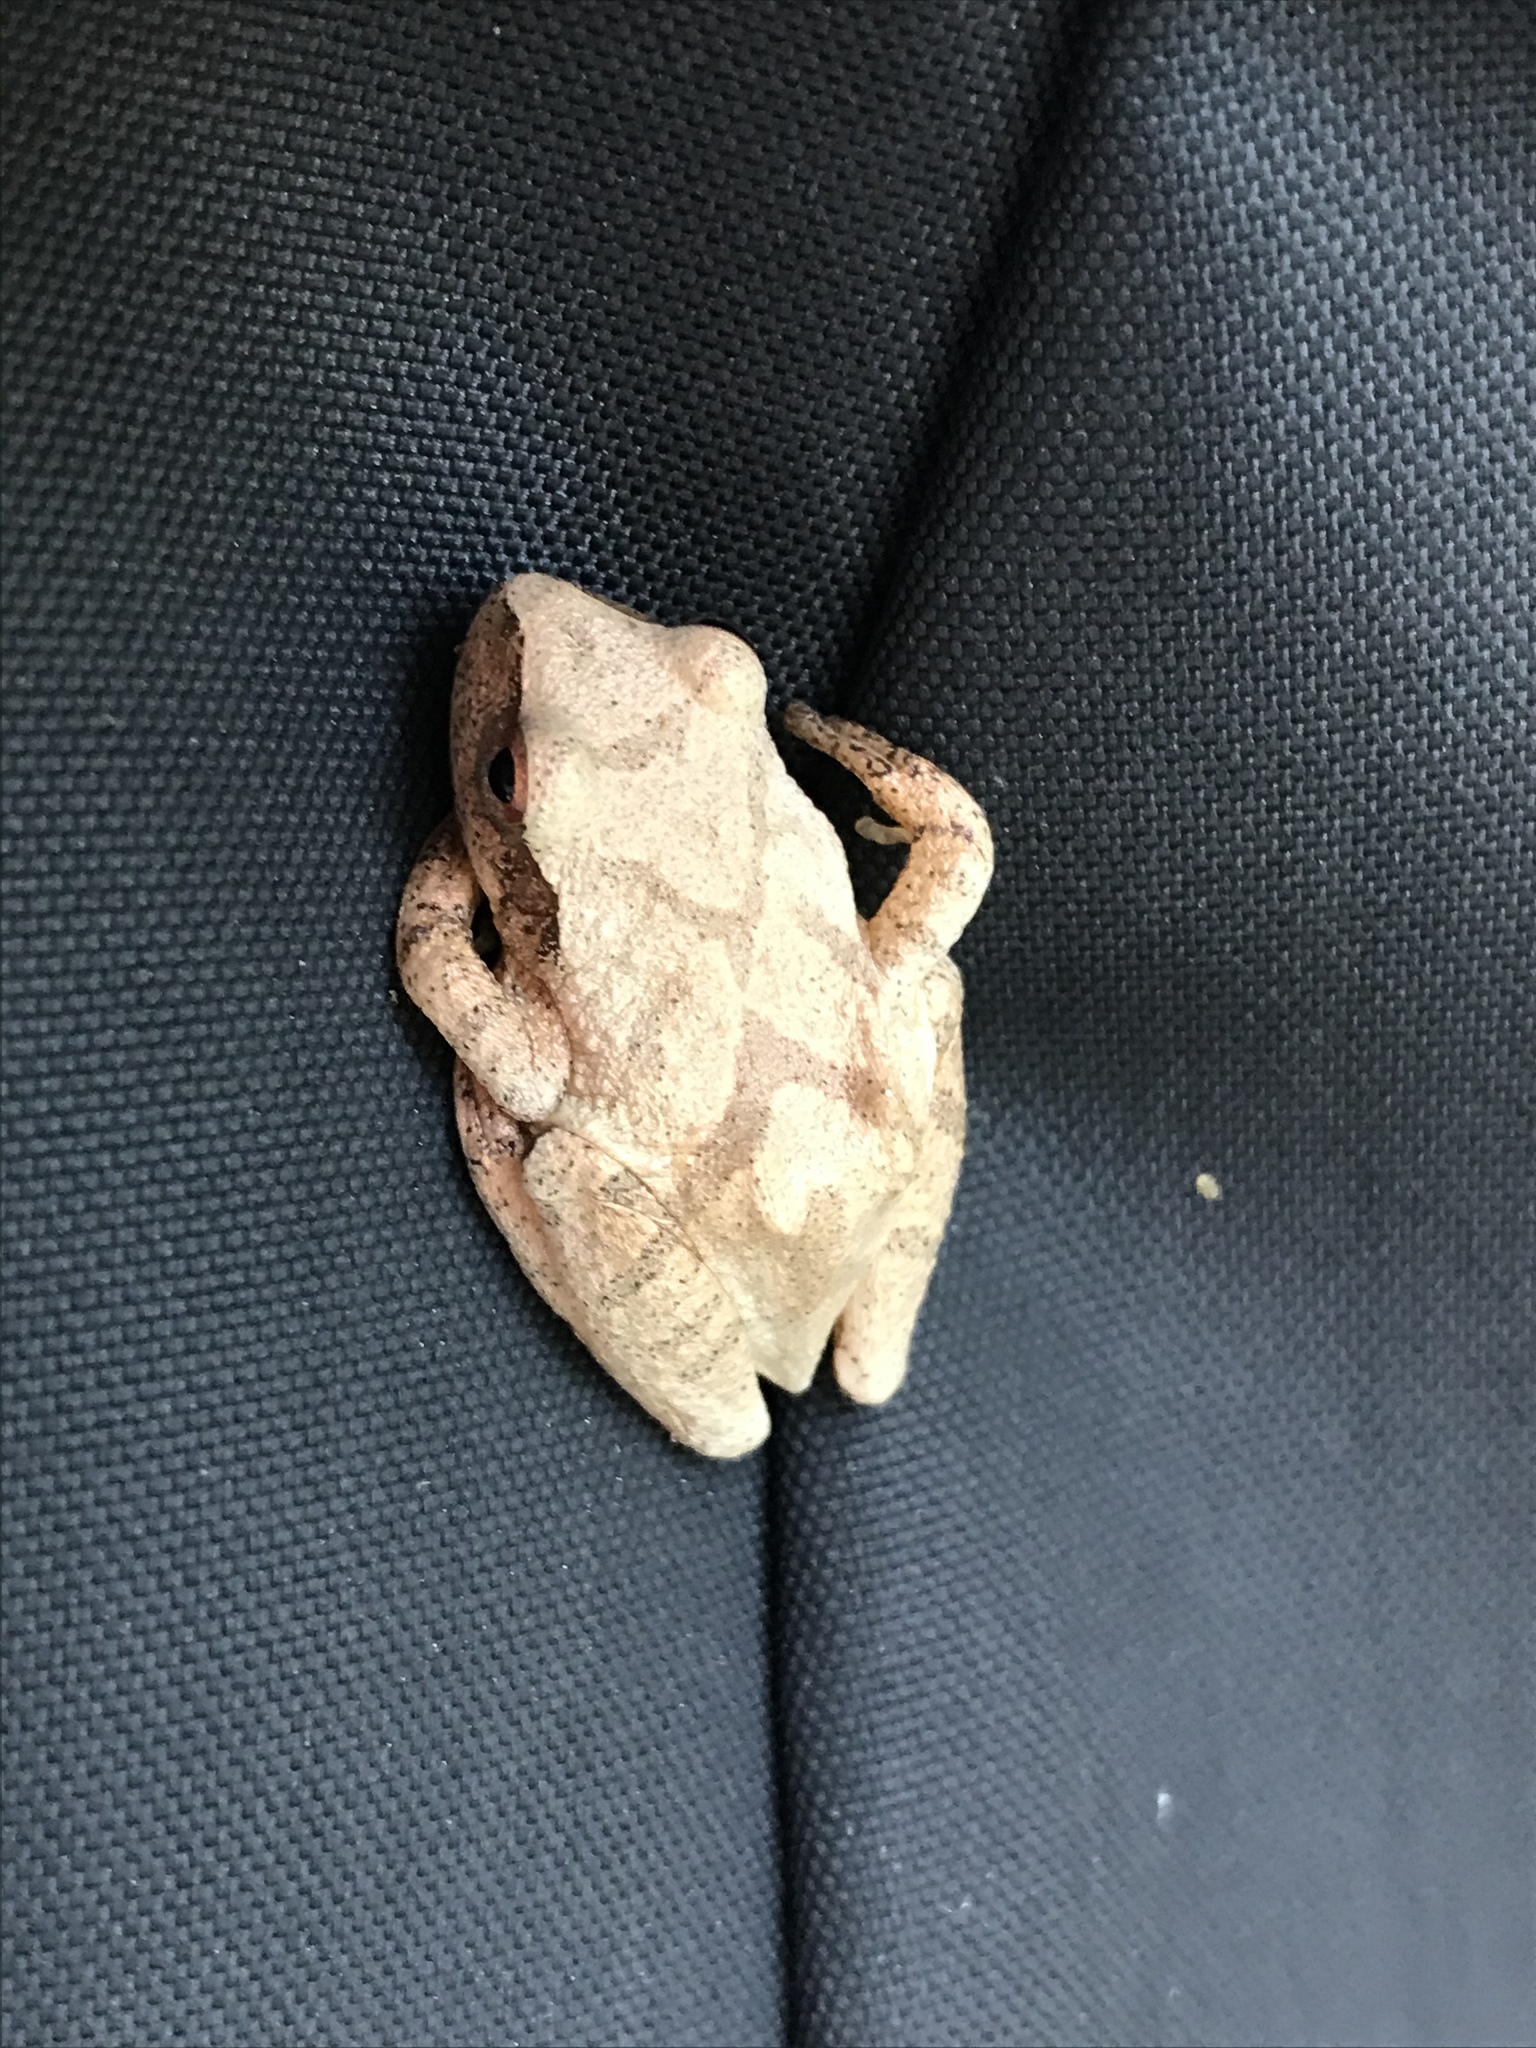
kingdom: Animalia
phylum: Chordata
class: Amphibia
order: Anura
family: Hylidae
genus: Pseudacris
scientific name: Pseudacris crucifer
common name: Spring peeper
